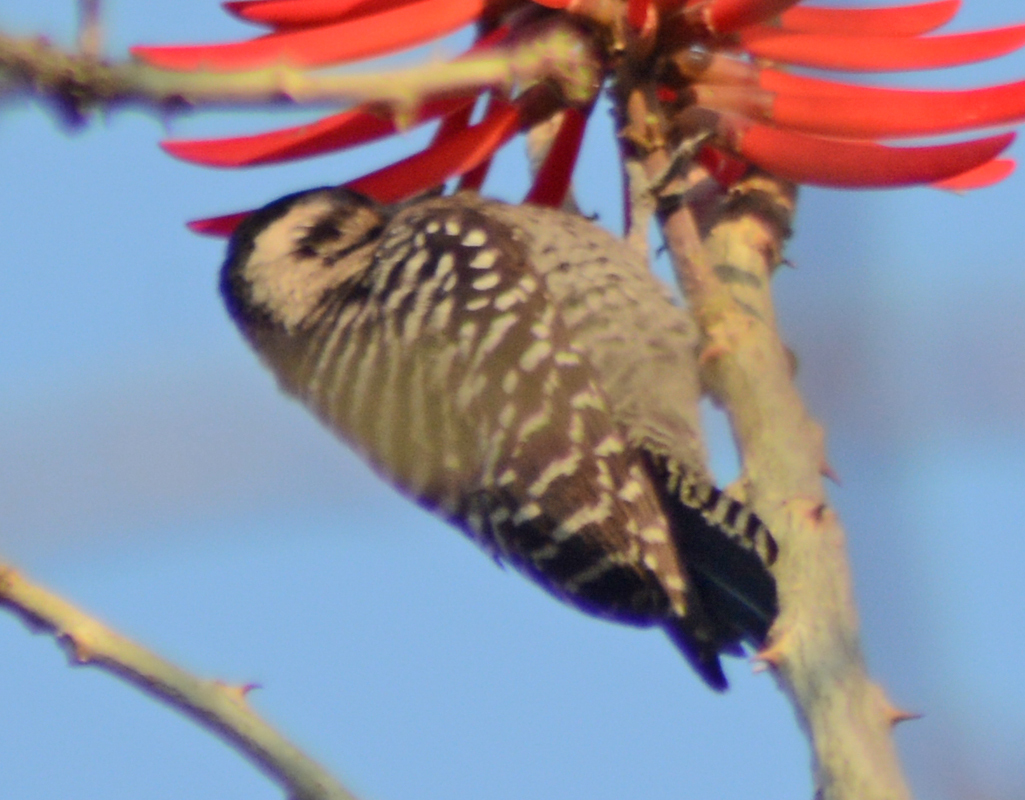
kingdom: Animalia
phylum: Chordata
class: Aves
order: Piciformes
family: Picidae
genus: Dryobates
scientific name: Dryobates scalaris
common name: Ladder-backed woodpecker
